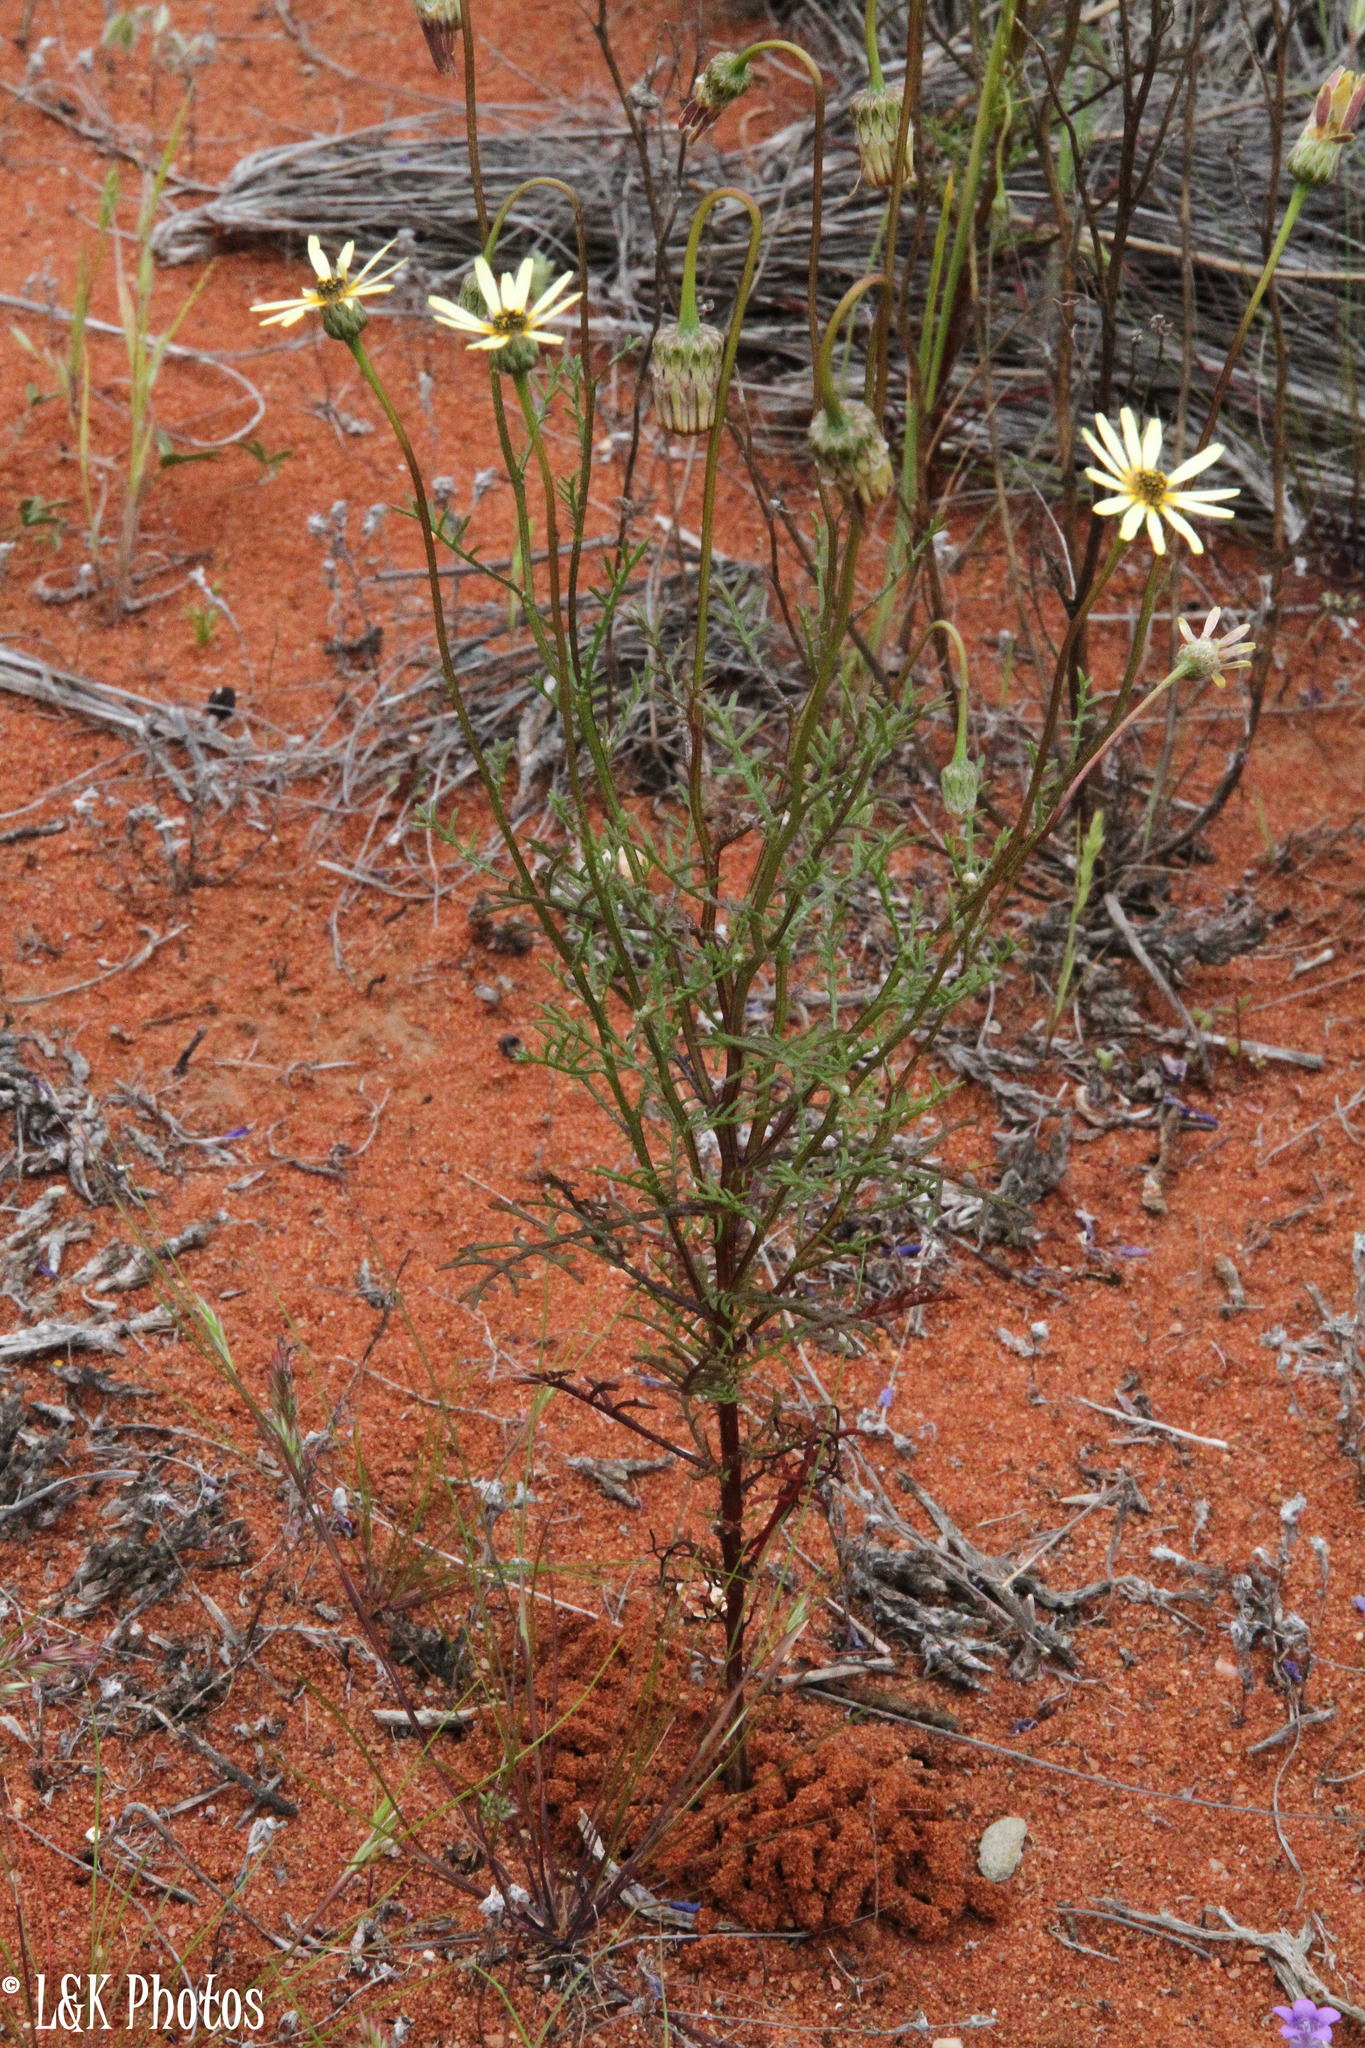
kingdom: Plantae
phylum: Tracheophyta
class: Magnoliopsida
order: Asterales
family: Asteraceae
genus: Ursinia
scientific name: Ursinia anthemoides
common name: Ursinia
